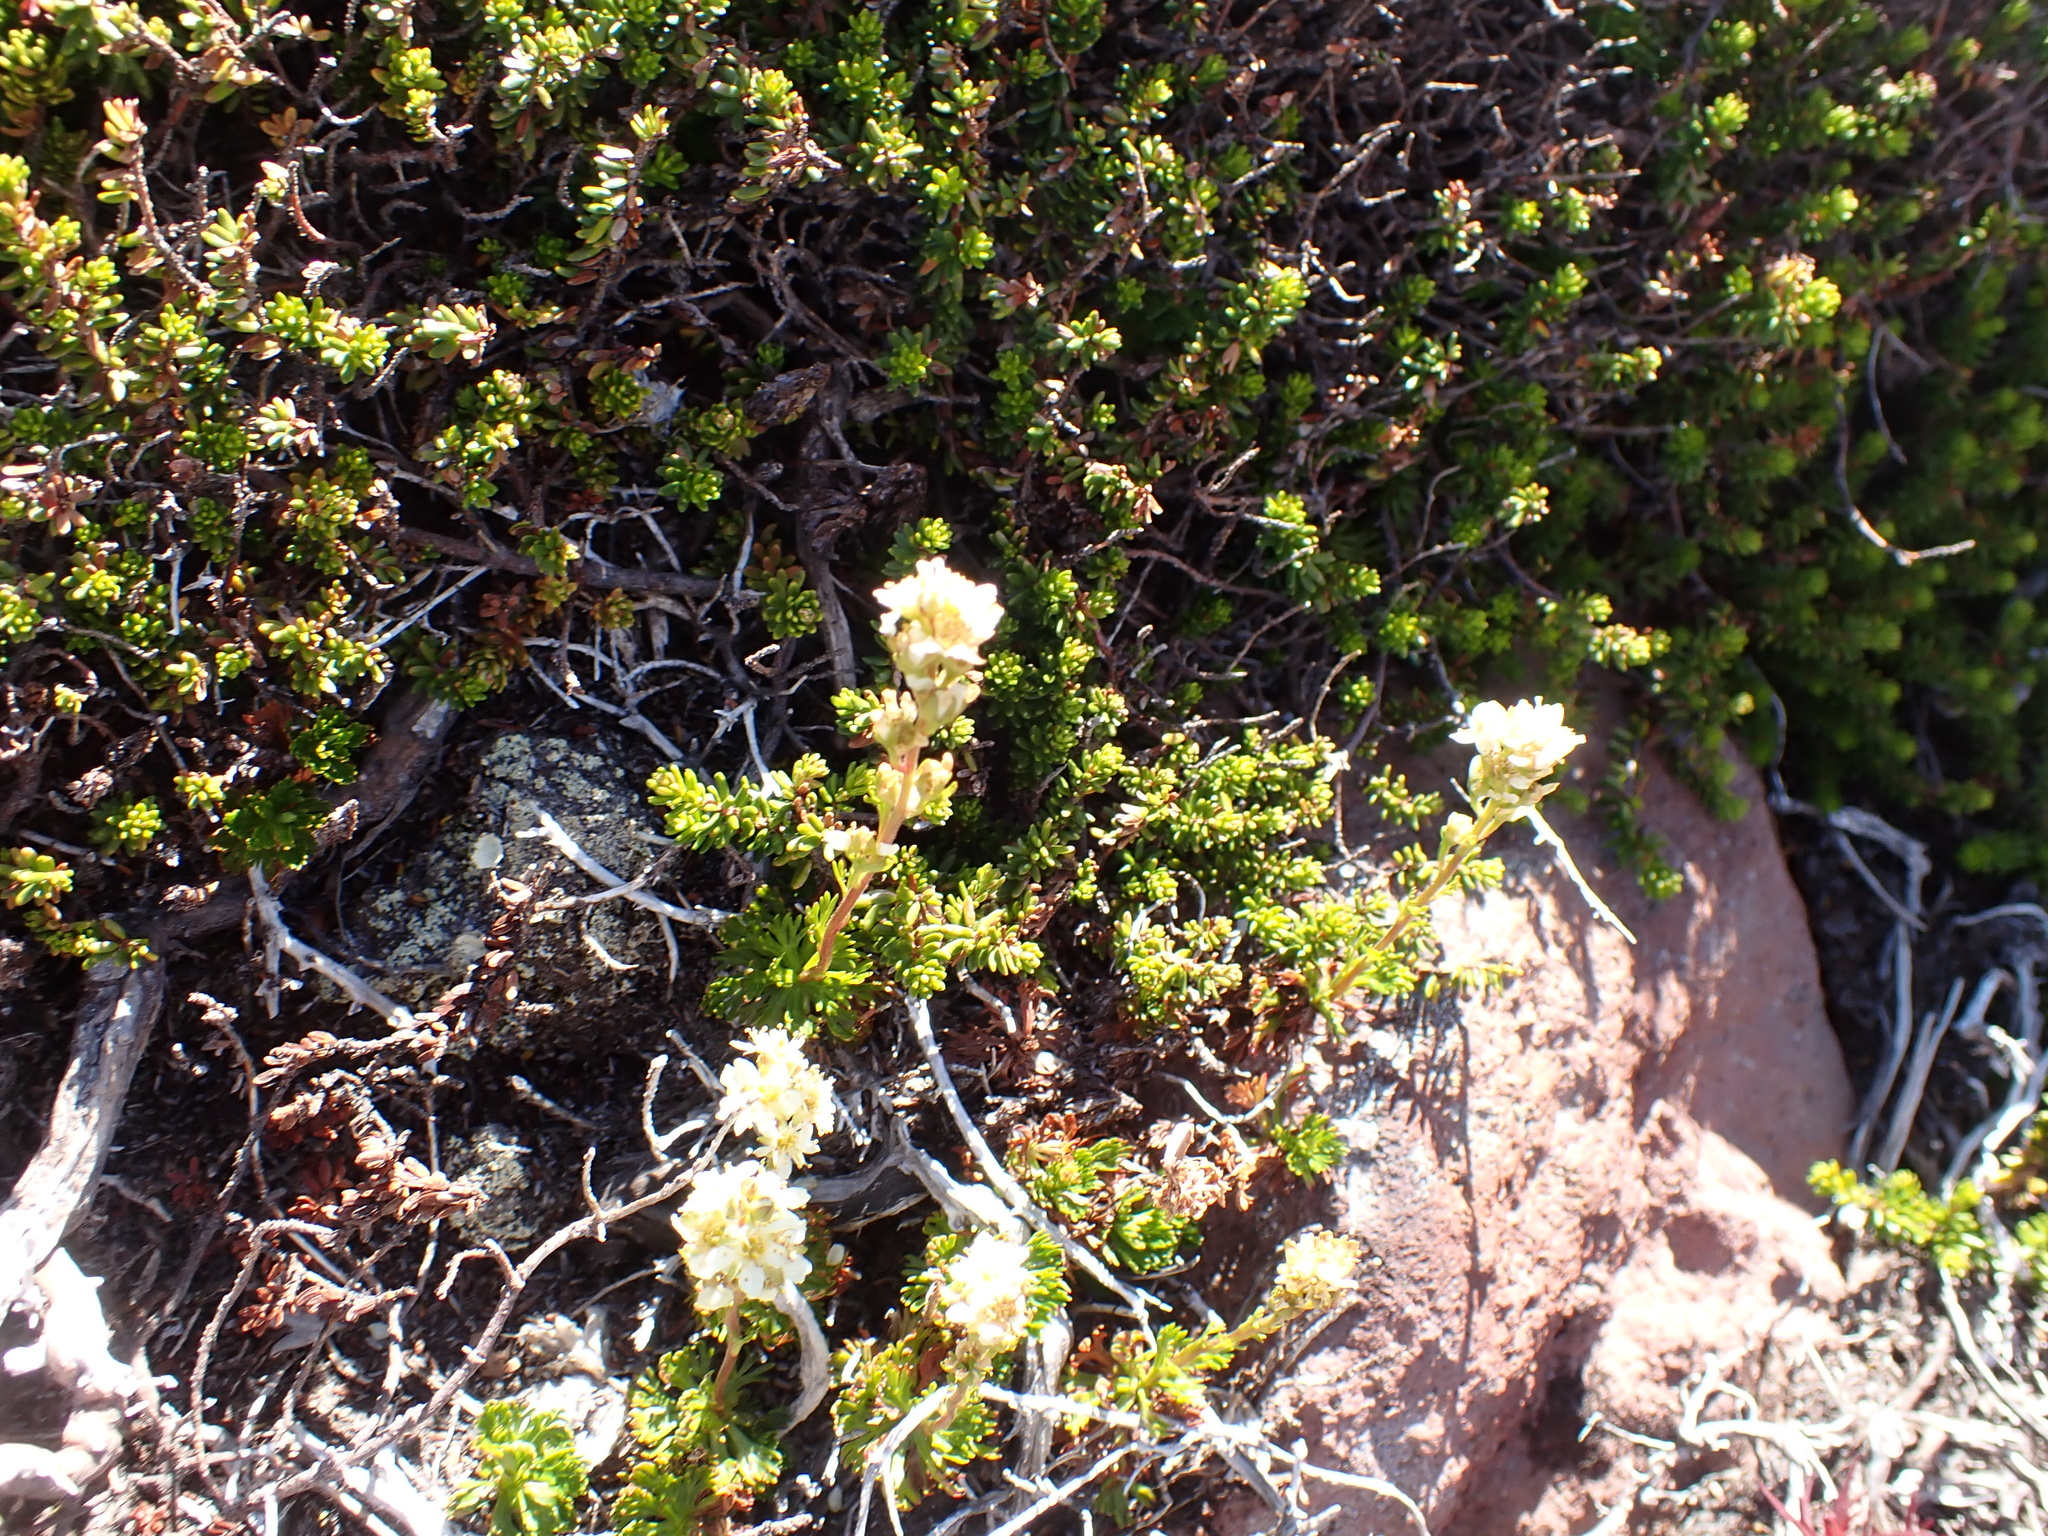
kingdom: Plantae
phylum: Tracheophyta
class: Magnoliopsida
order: Rosales
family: Rosaceae
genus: Luetkea
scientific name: Luetkea pectinata
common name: Partridgefoot
